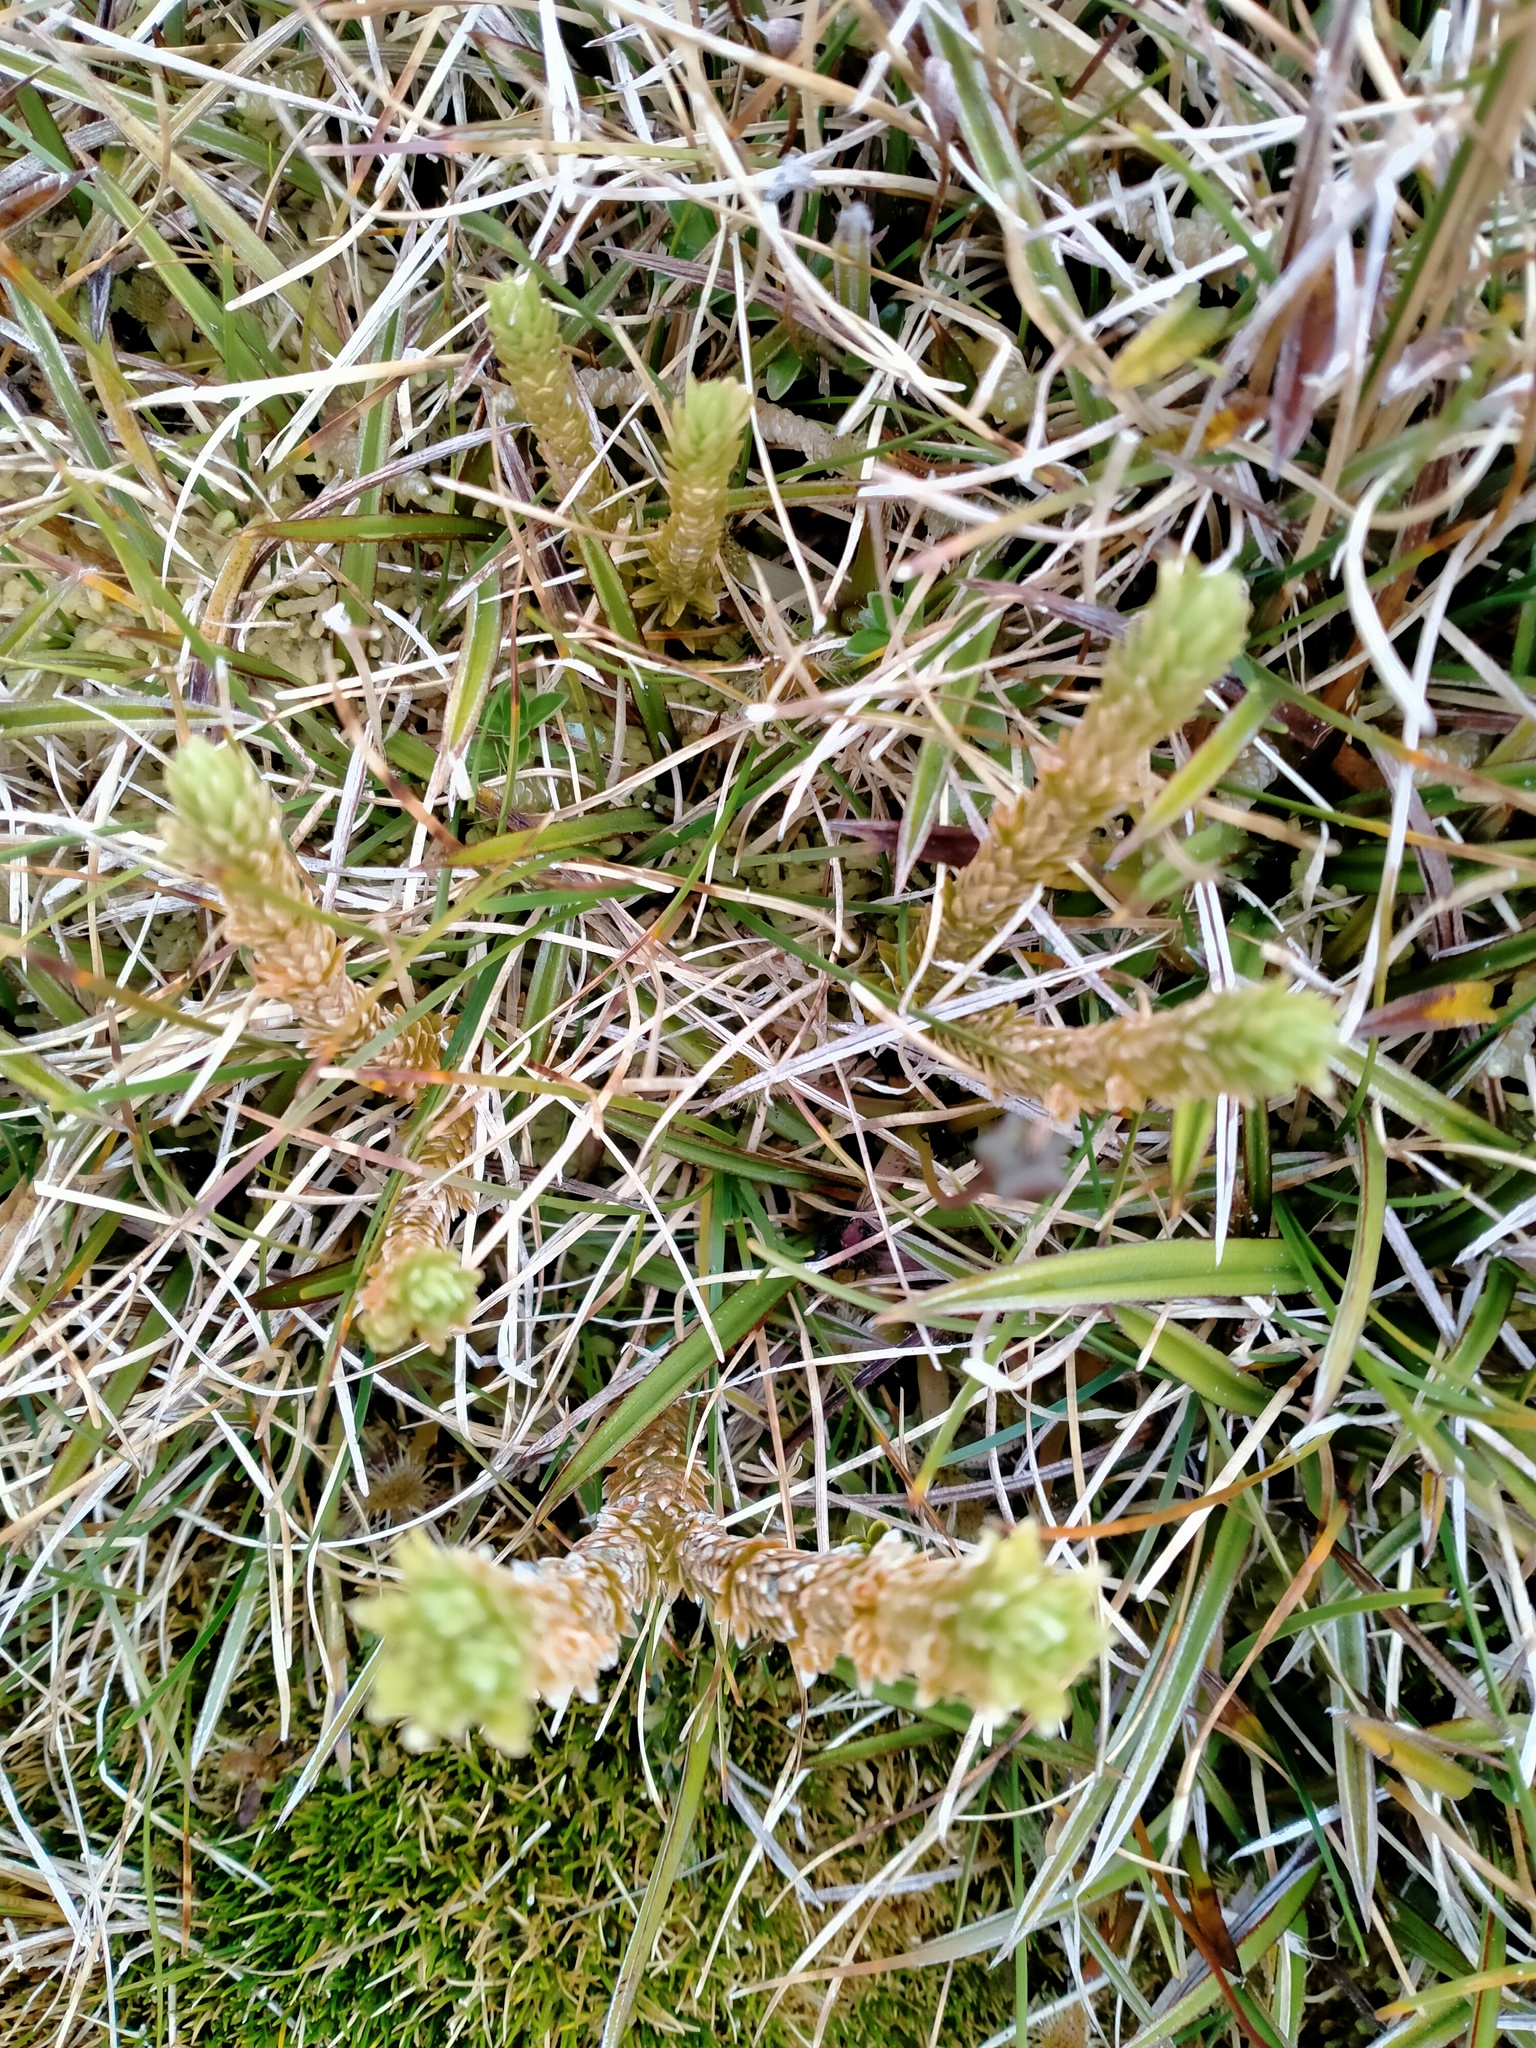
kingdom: Plantae
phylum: Tracheophyta
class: Lycopodiopsida
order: Lycopodiales
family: Lycopodiaceae
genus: Huperzia
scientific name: Huperzia australiana
